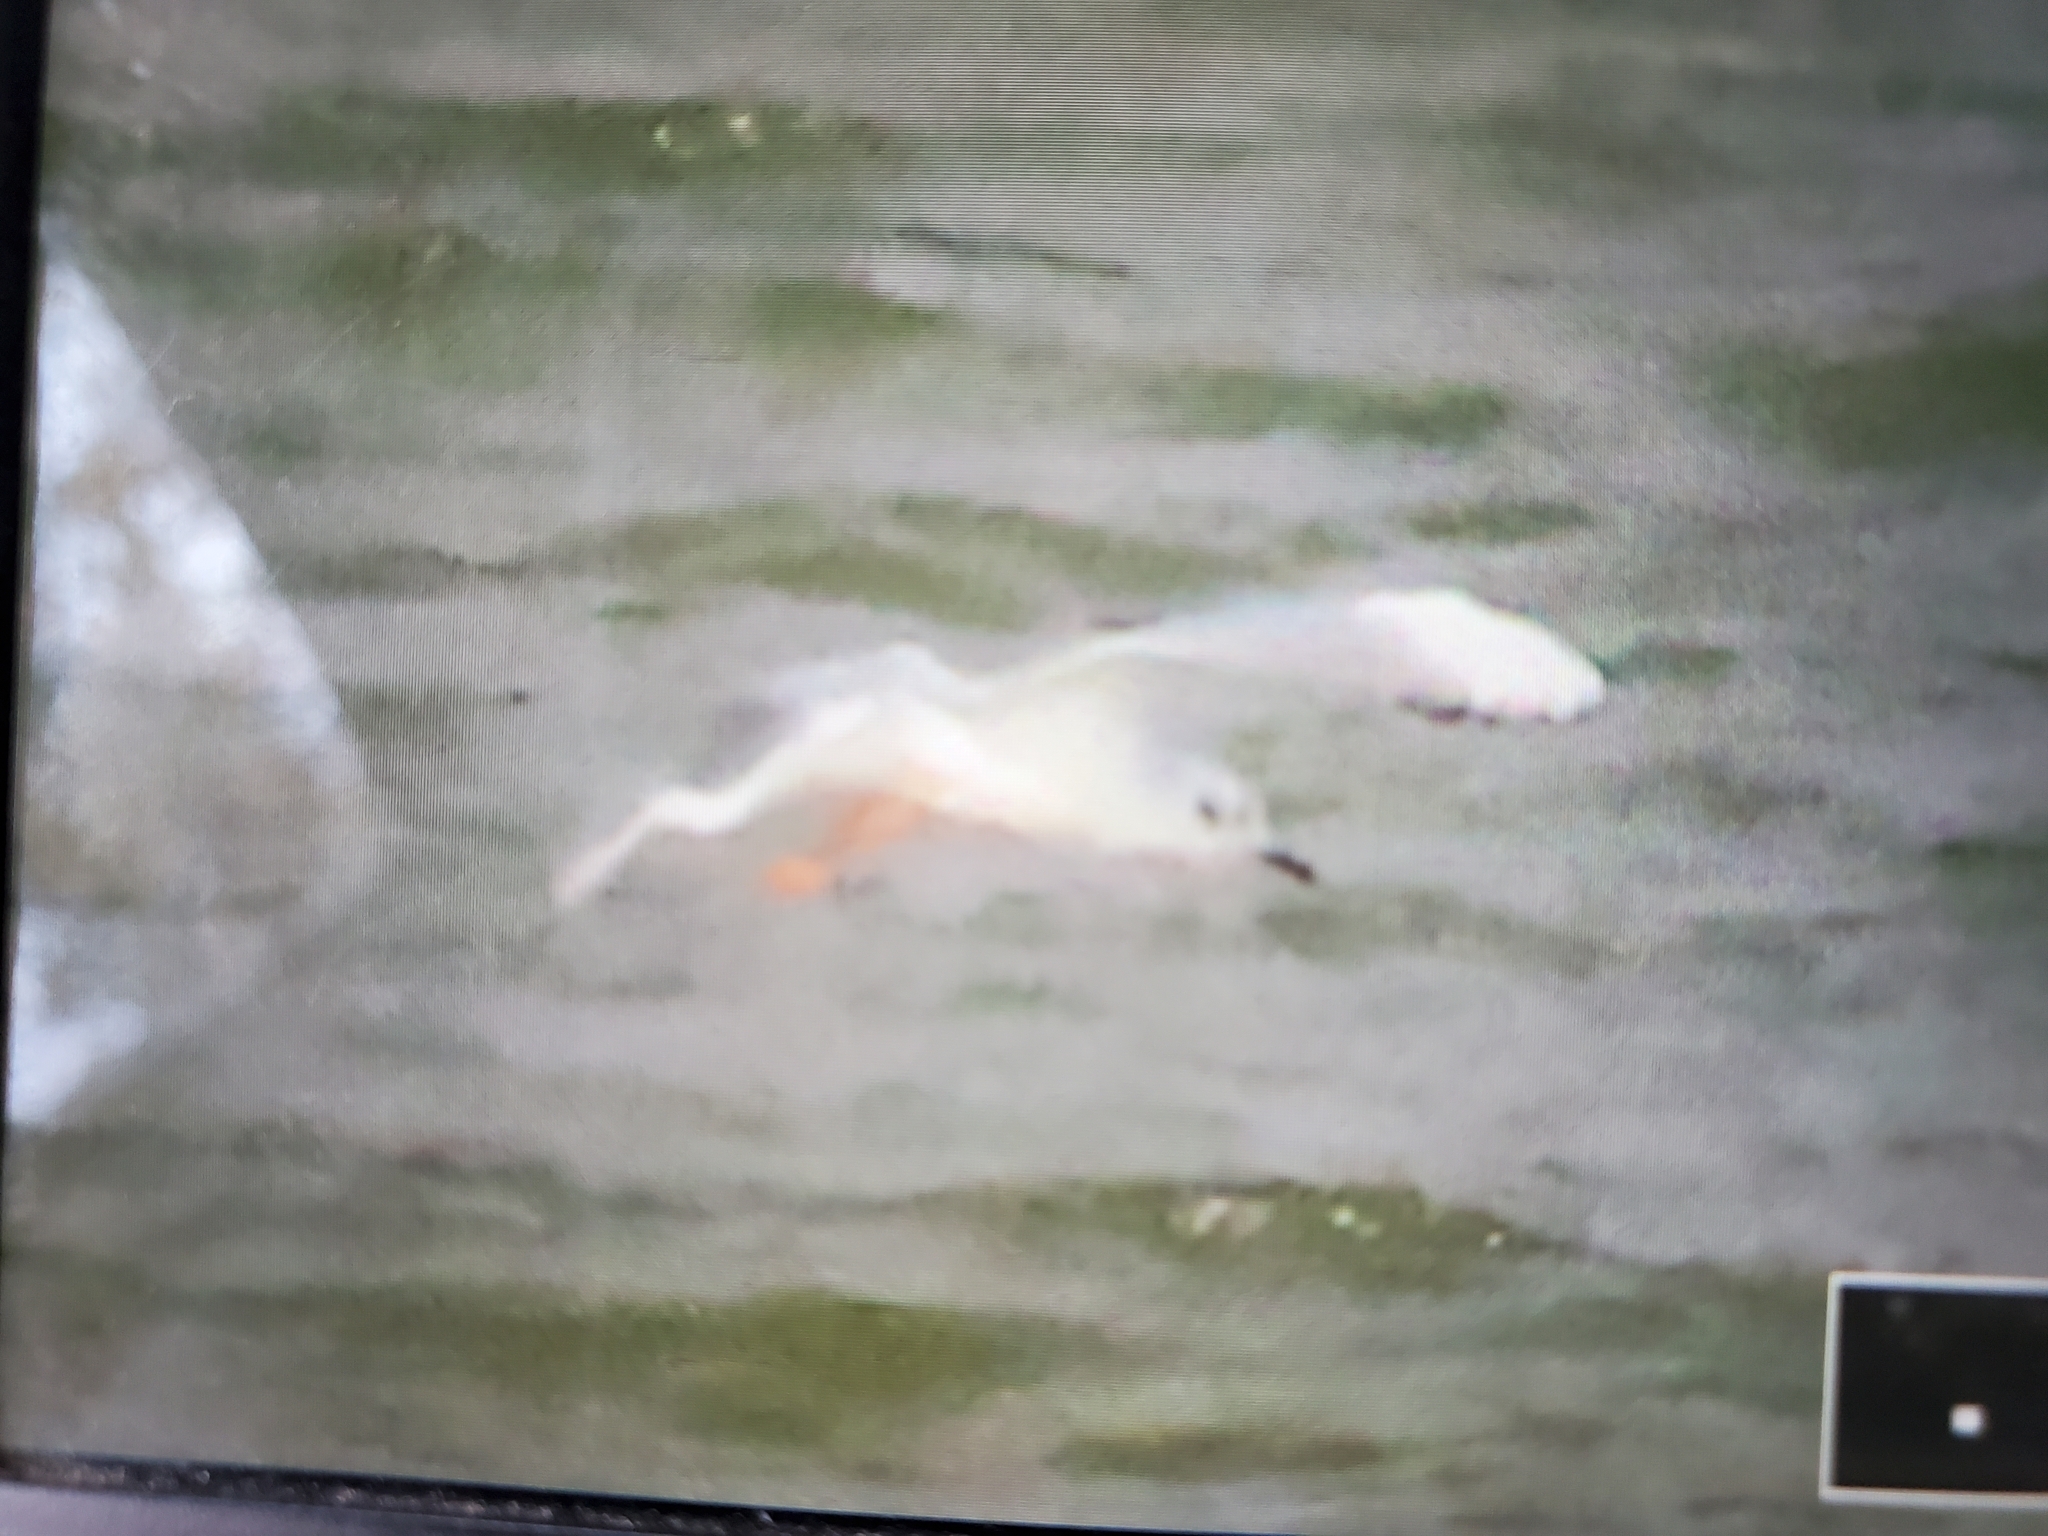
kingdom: Animalia
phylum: Chordata
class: Aves
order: Charadriiformes
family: Laridae
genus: Chroicocephalus
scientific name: Chroicocephalus philadelphia
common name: Bonaparte's gull
